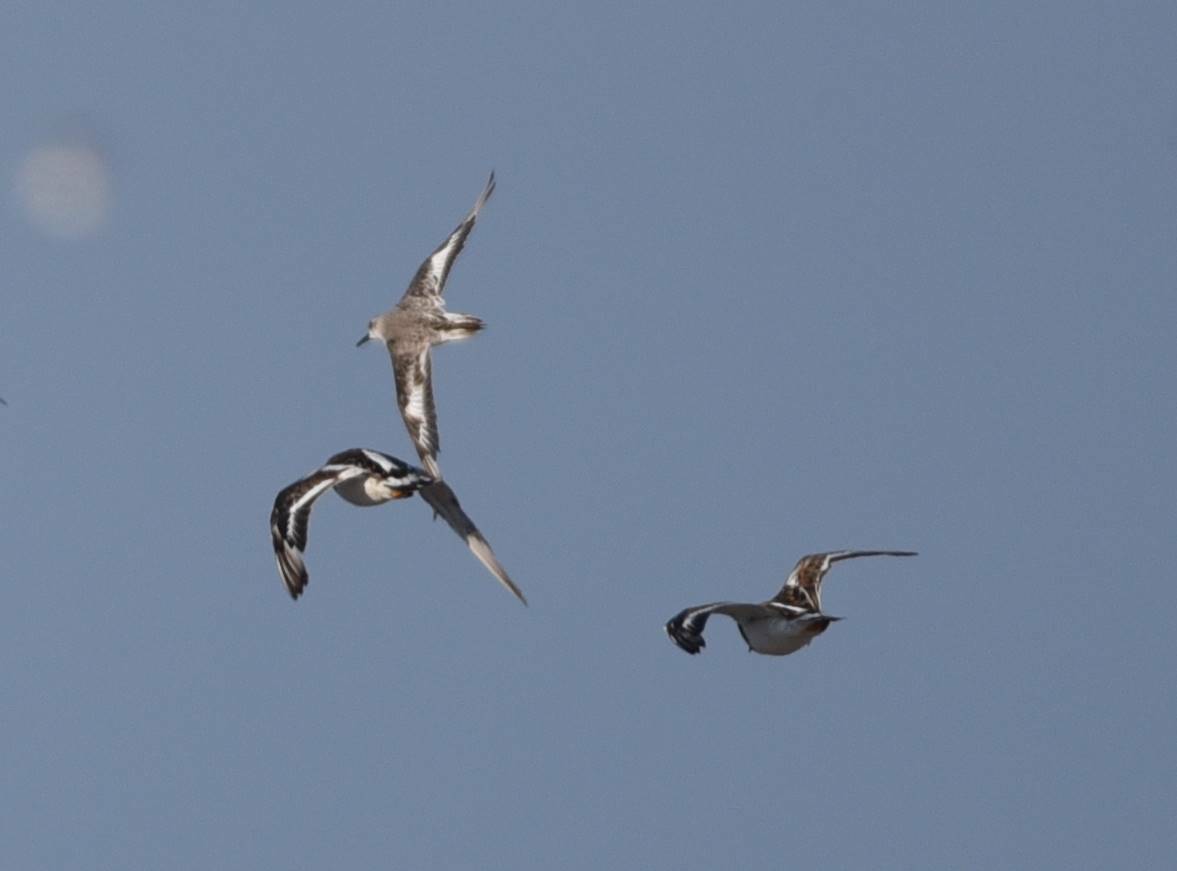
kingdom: Animalia
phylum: Chordata
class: Aves
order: Charadriiformes
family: Scolopacidae
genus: Calidris
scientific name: Calidris alba
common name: Sanderling
